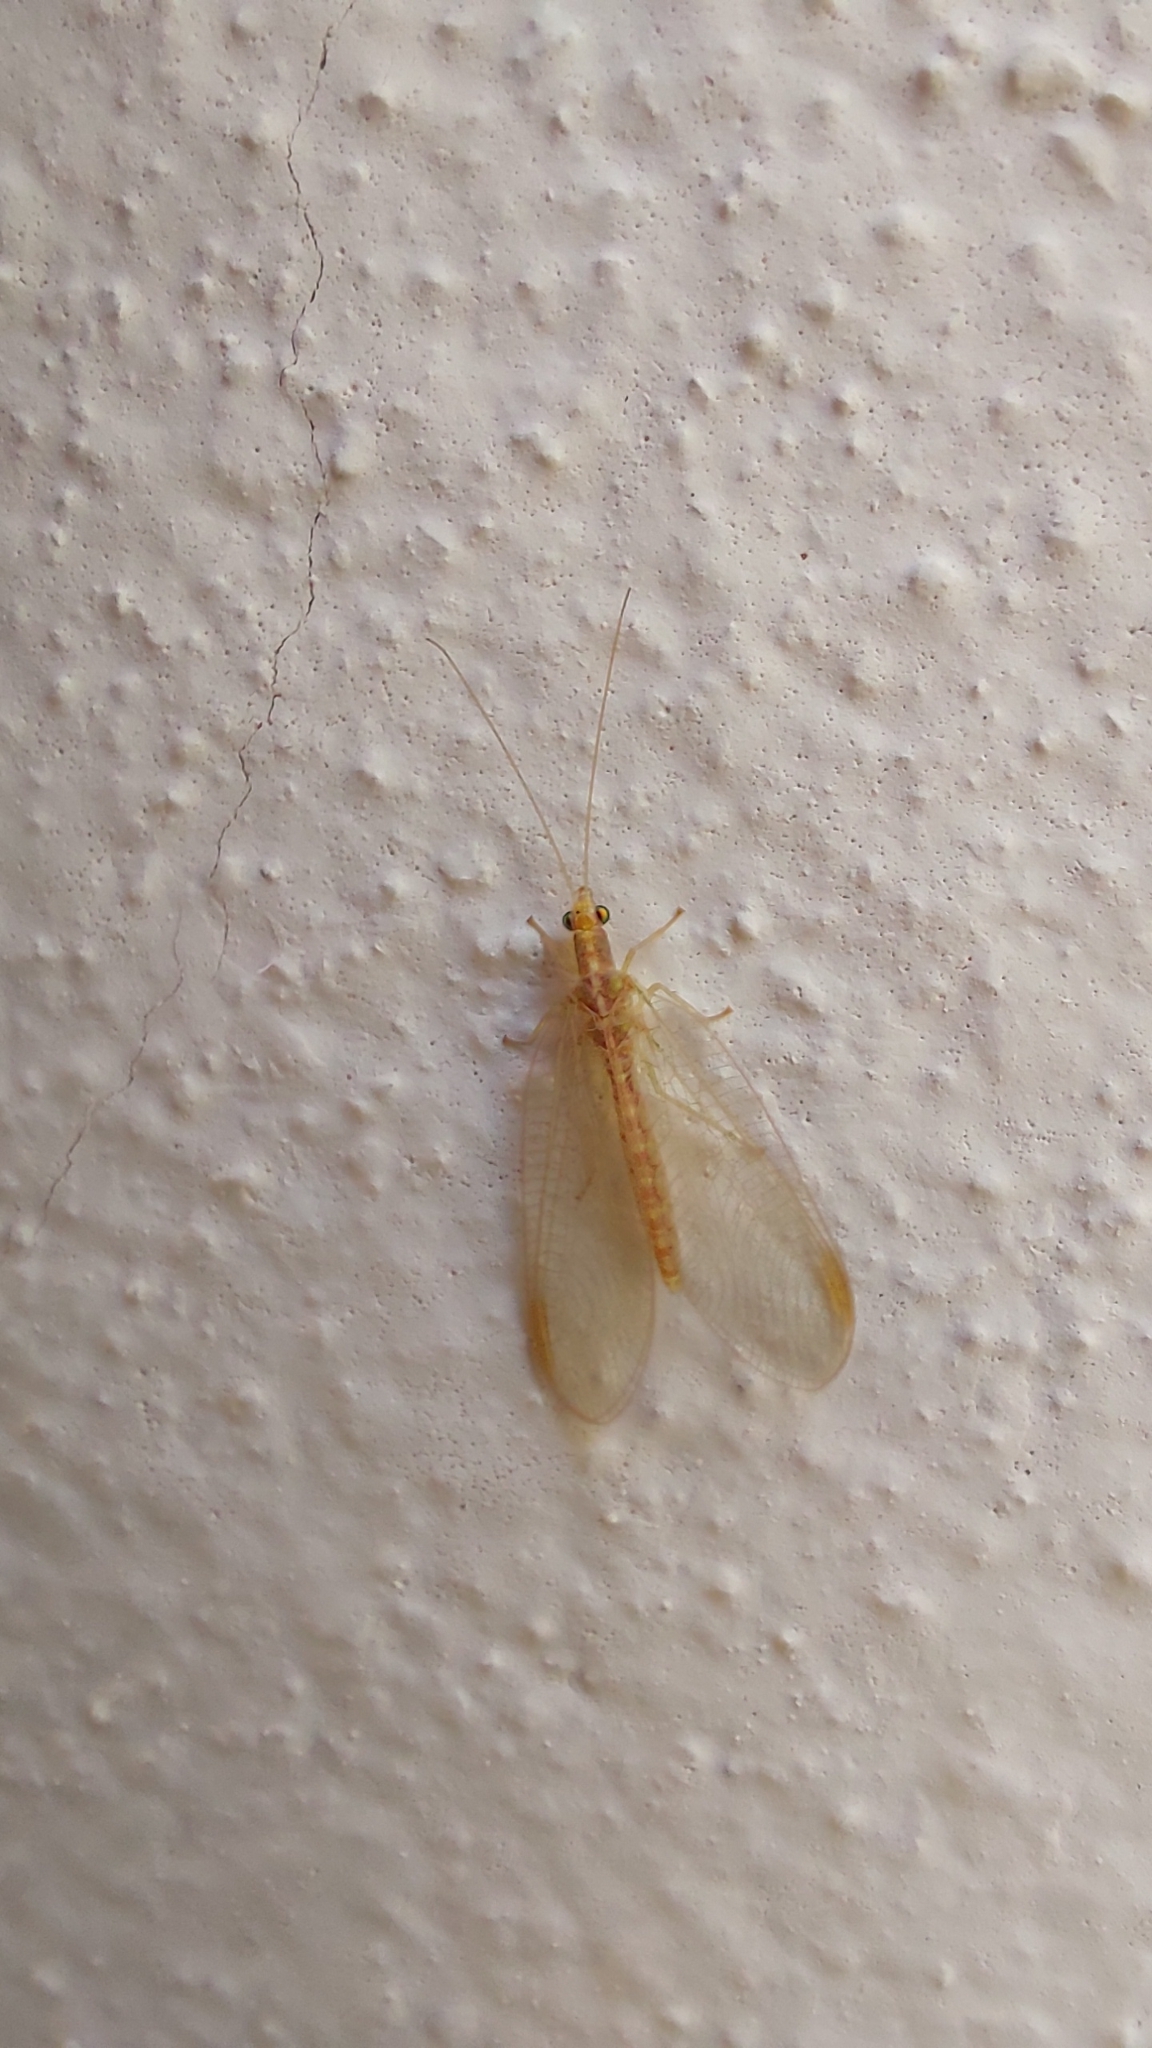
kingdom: Animalia
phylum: Arthropoda
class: Insecta
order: Neuroptera
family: Chrysopidae
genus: Chrysoperla
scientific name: Chrysoperla
